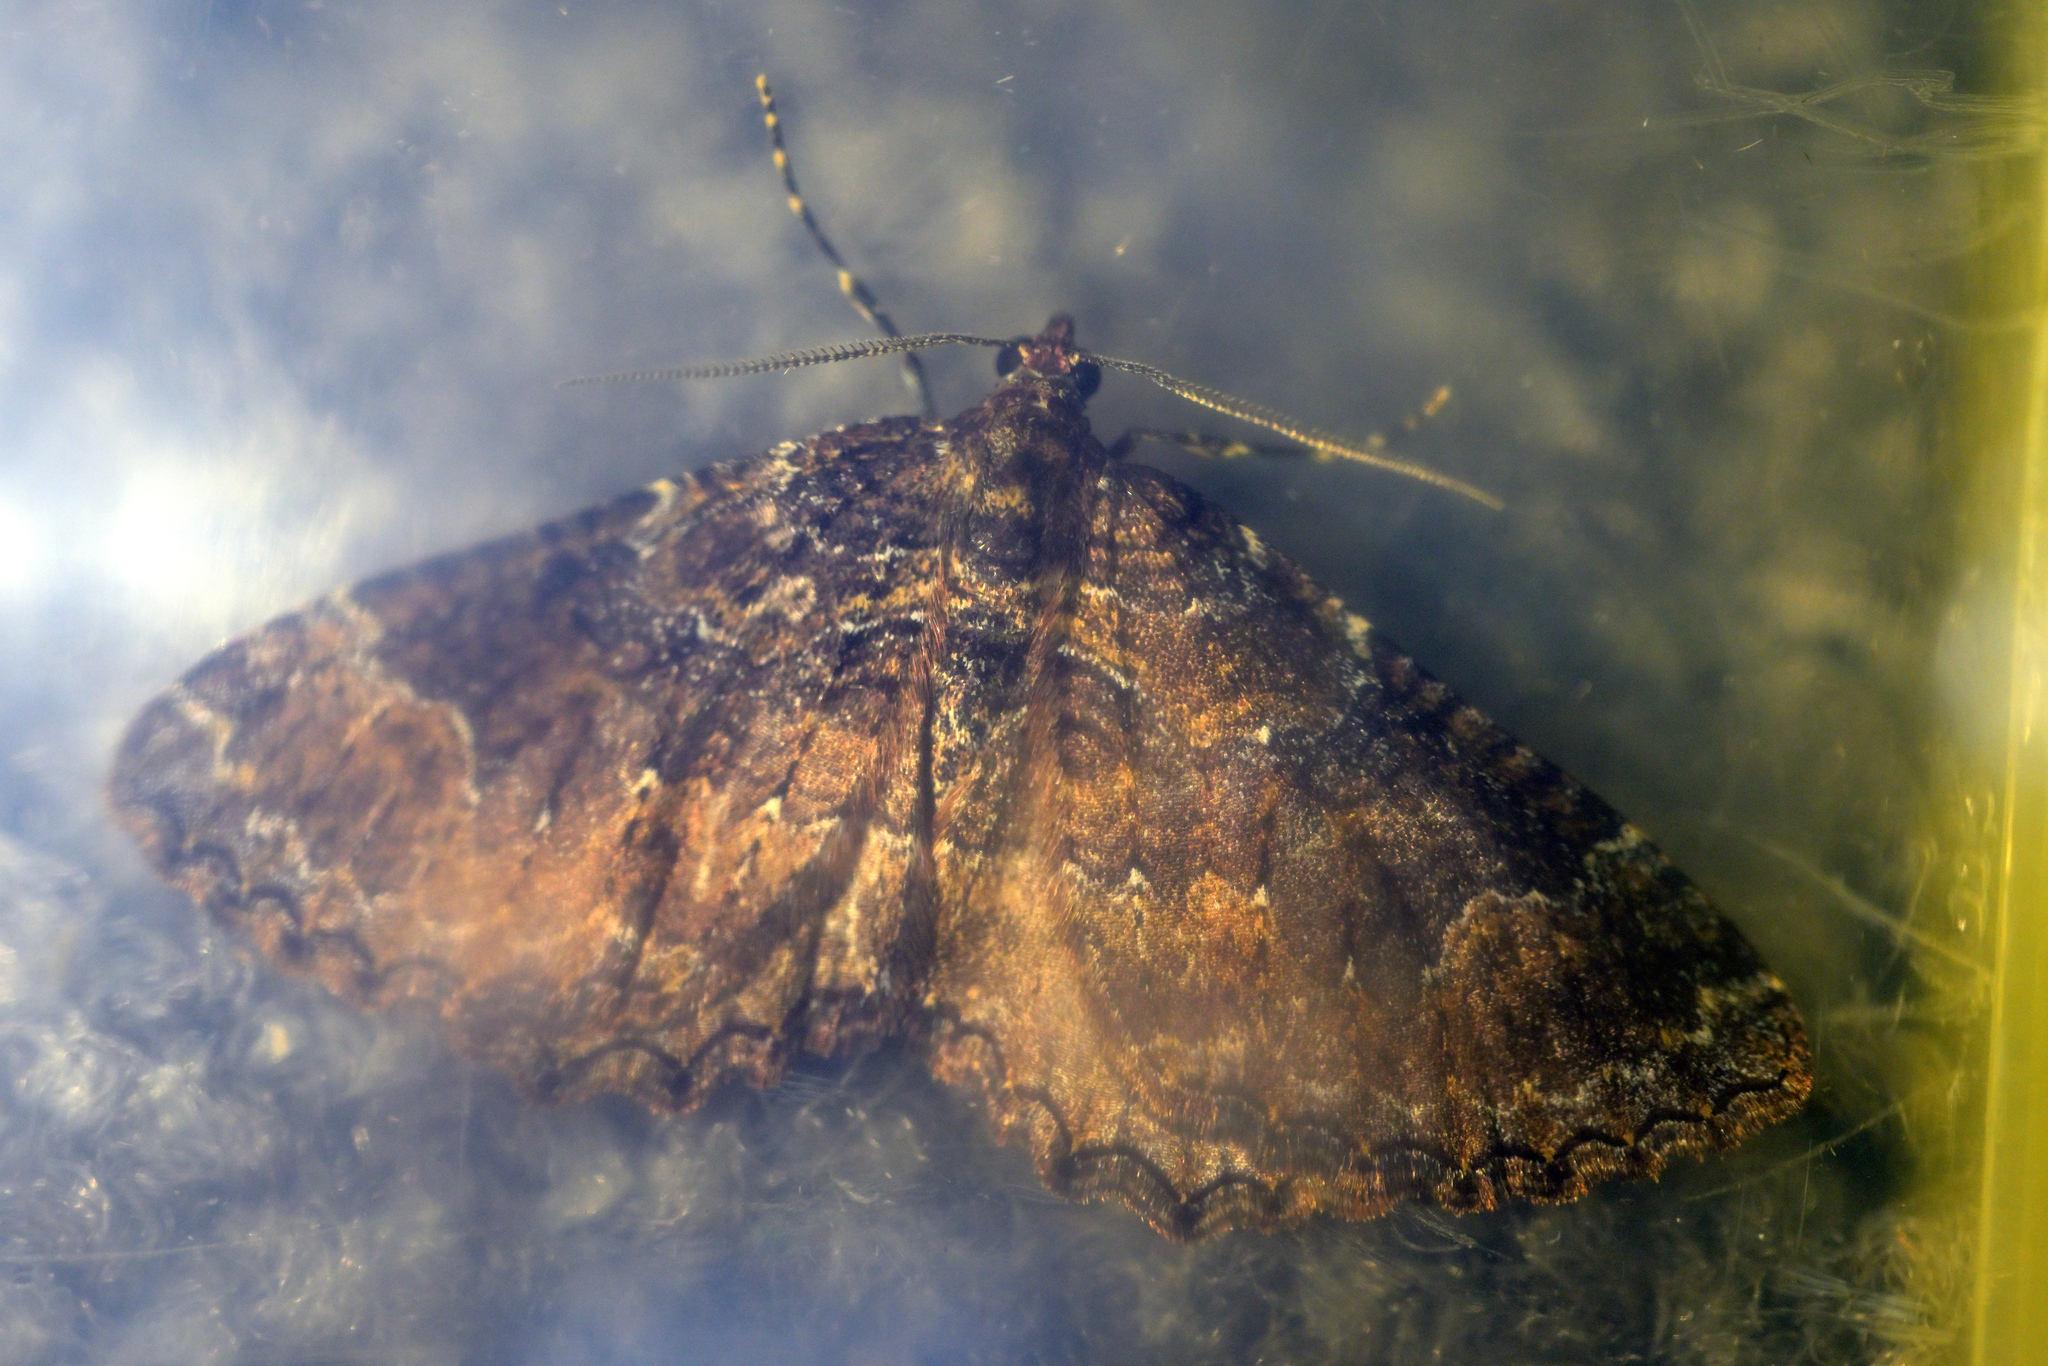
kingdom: Animalia
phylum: Arthropoda
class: Insecta
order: Lepidoptera
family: Geometridae
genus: Hydriomena
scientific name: Hydriomena hemizona
